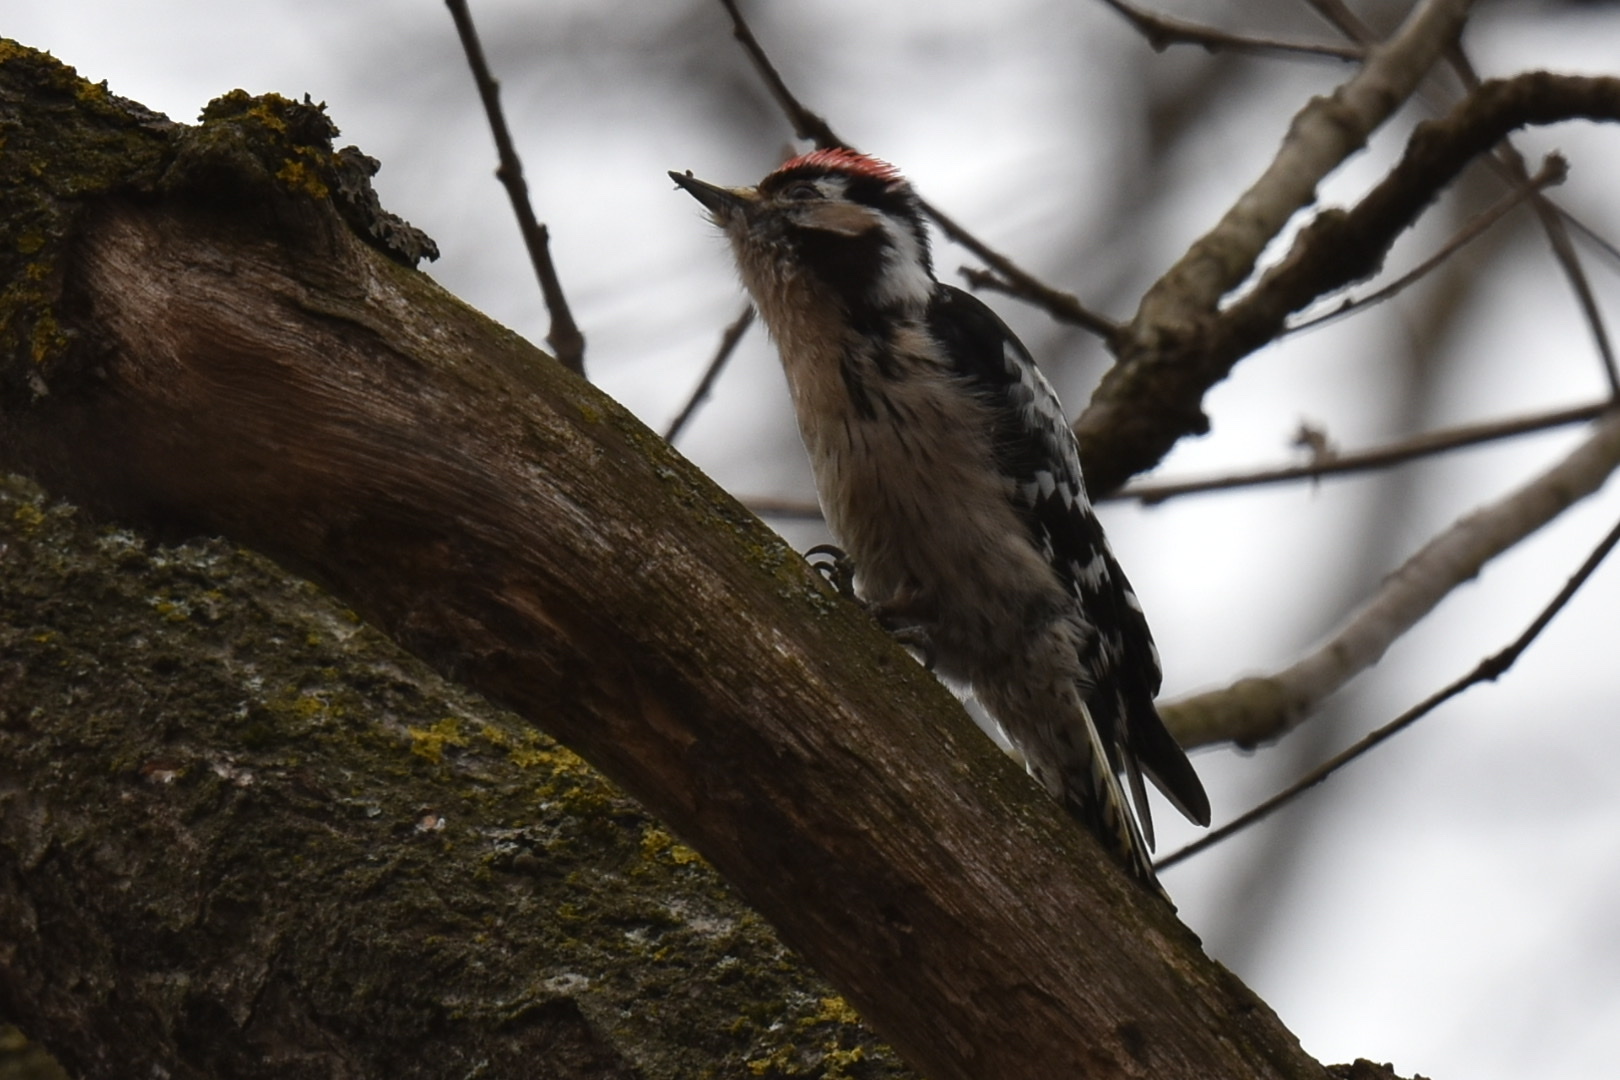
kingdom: Animalia
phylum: Chordata
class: Aves
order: Piciformes
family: Picidae
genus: Dryobates
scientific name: Dryobates minor
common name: Lesser spotted woodpecker
